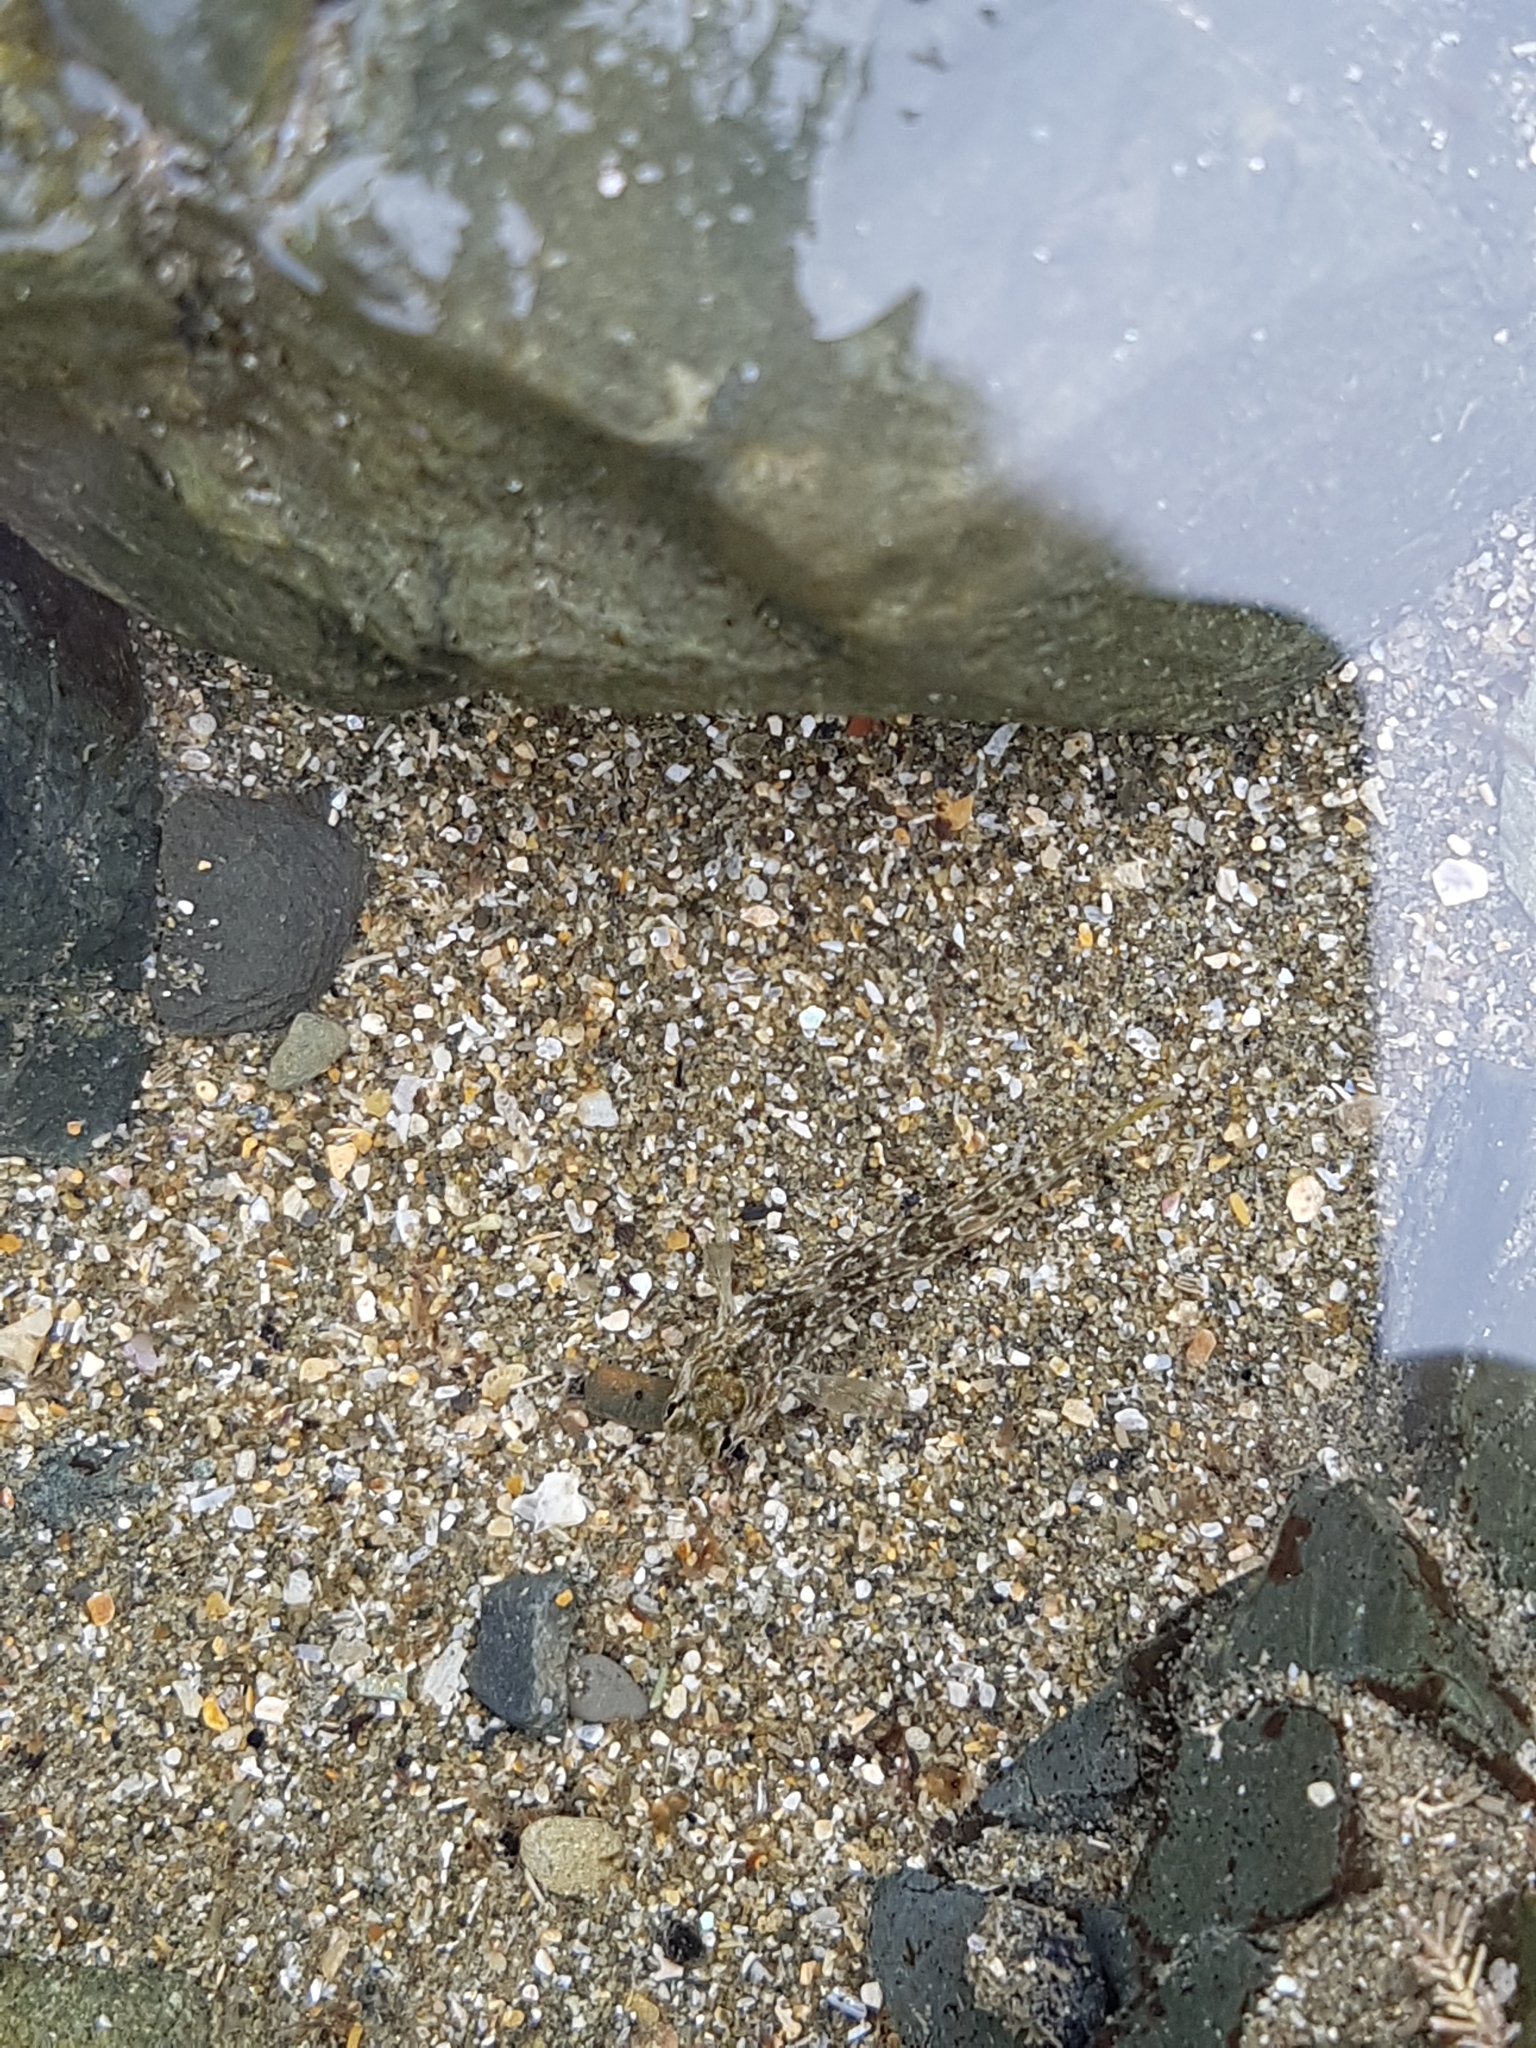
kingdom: Animalia
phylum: Chordata
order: Perciformes
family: Tripterygiidae
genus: Bellapiscis
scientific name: Bellapiscis medius
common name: Twister
